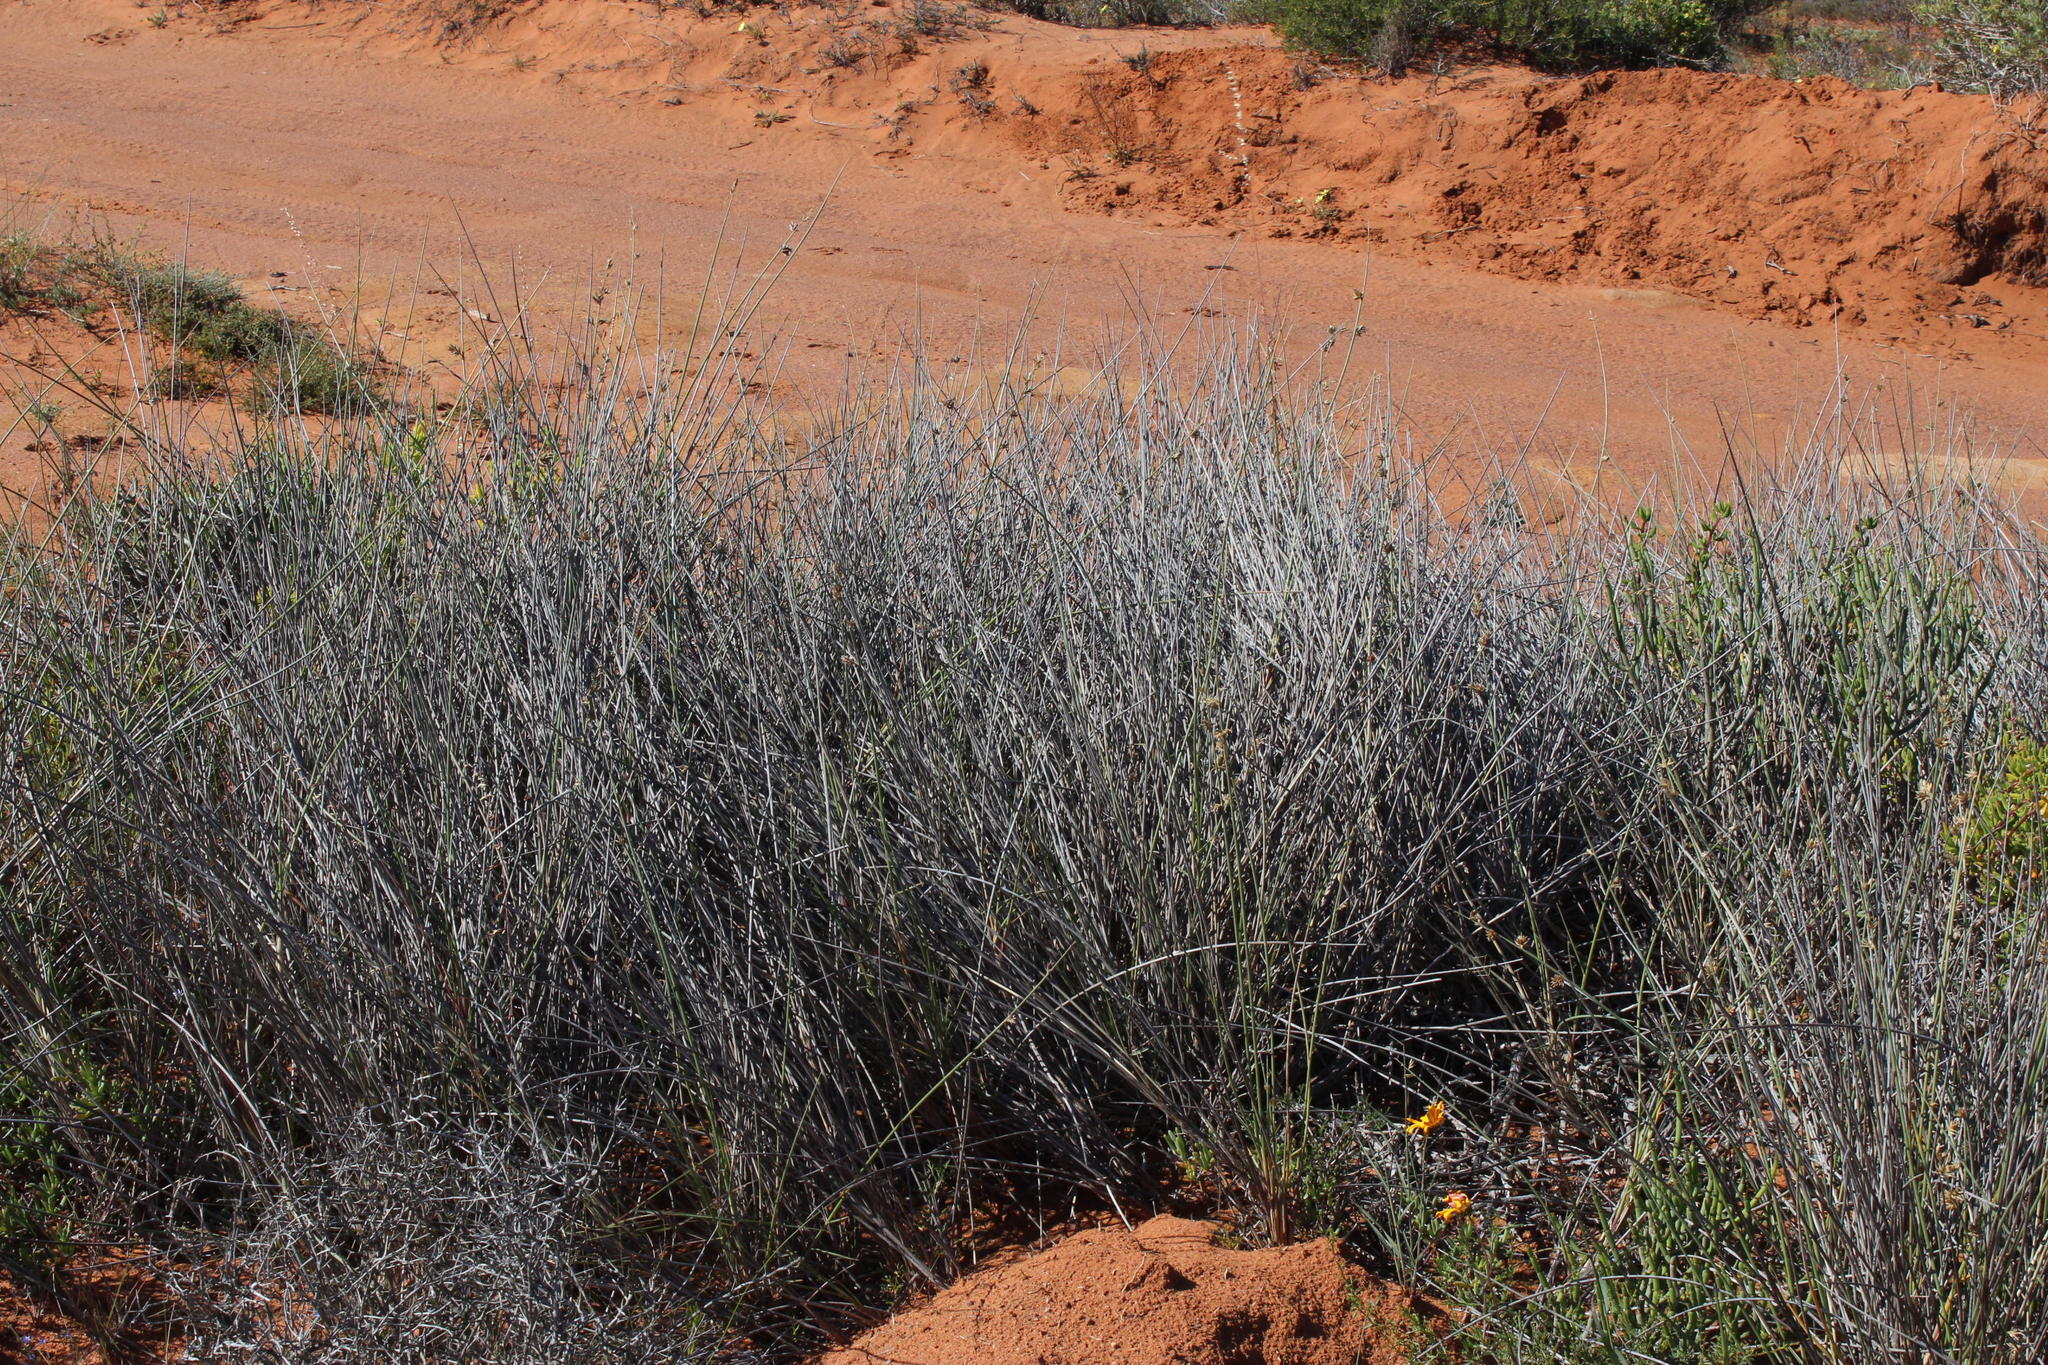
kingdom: Plantae
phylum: Tracheophyta
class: Liliopsida
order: Poales
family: Poaceae
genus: Cladoraphis
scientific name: Cladoraphis cyperoides
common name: Bristly lovegrass
